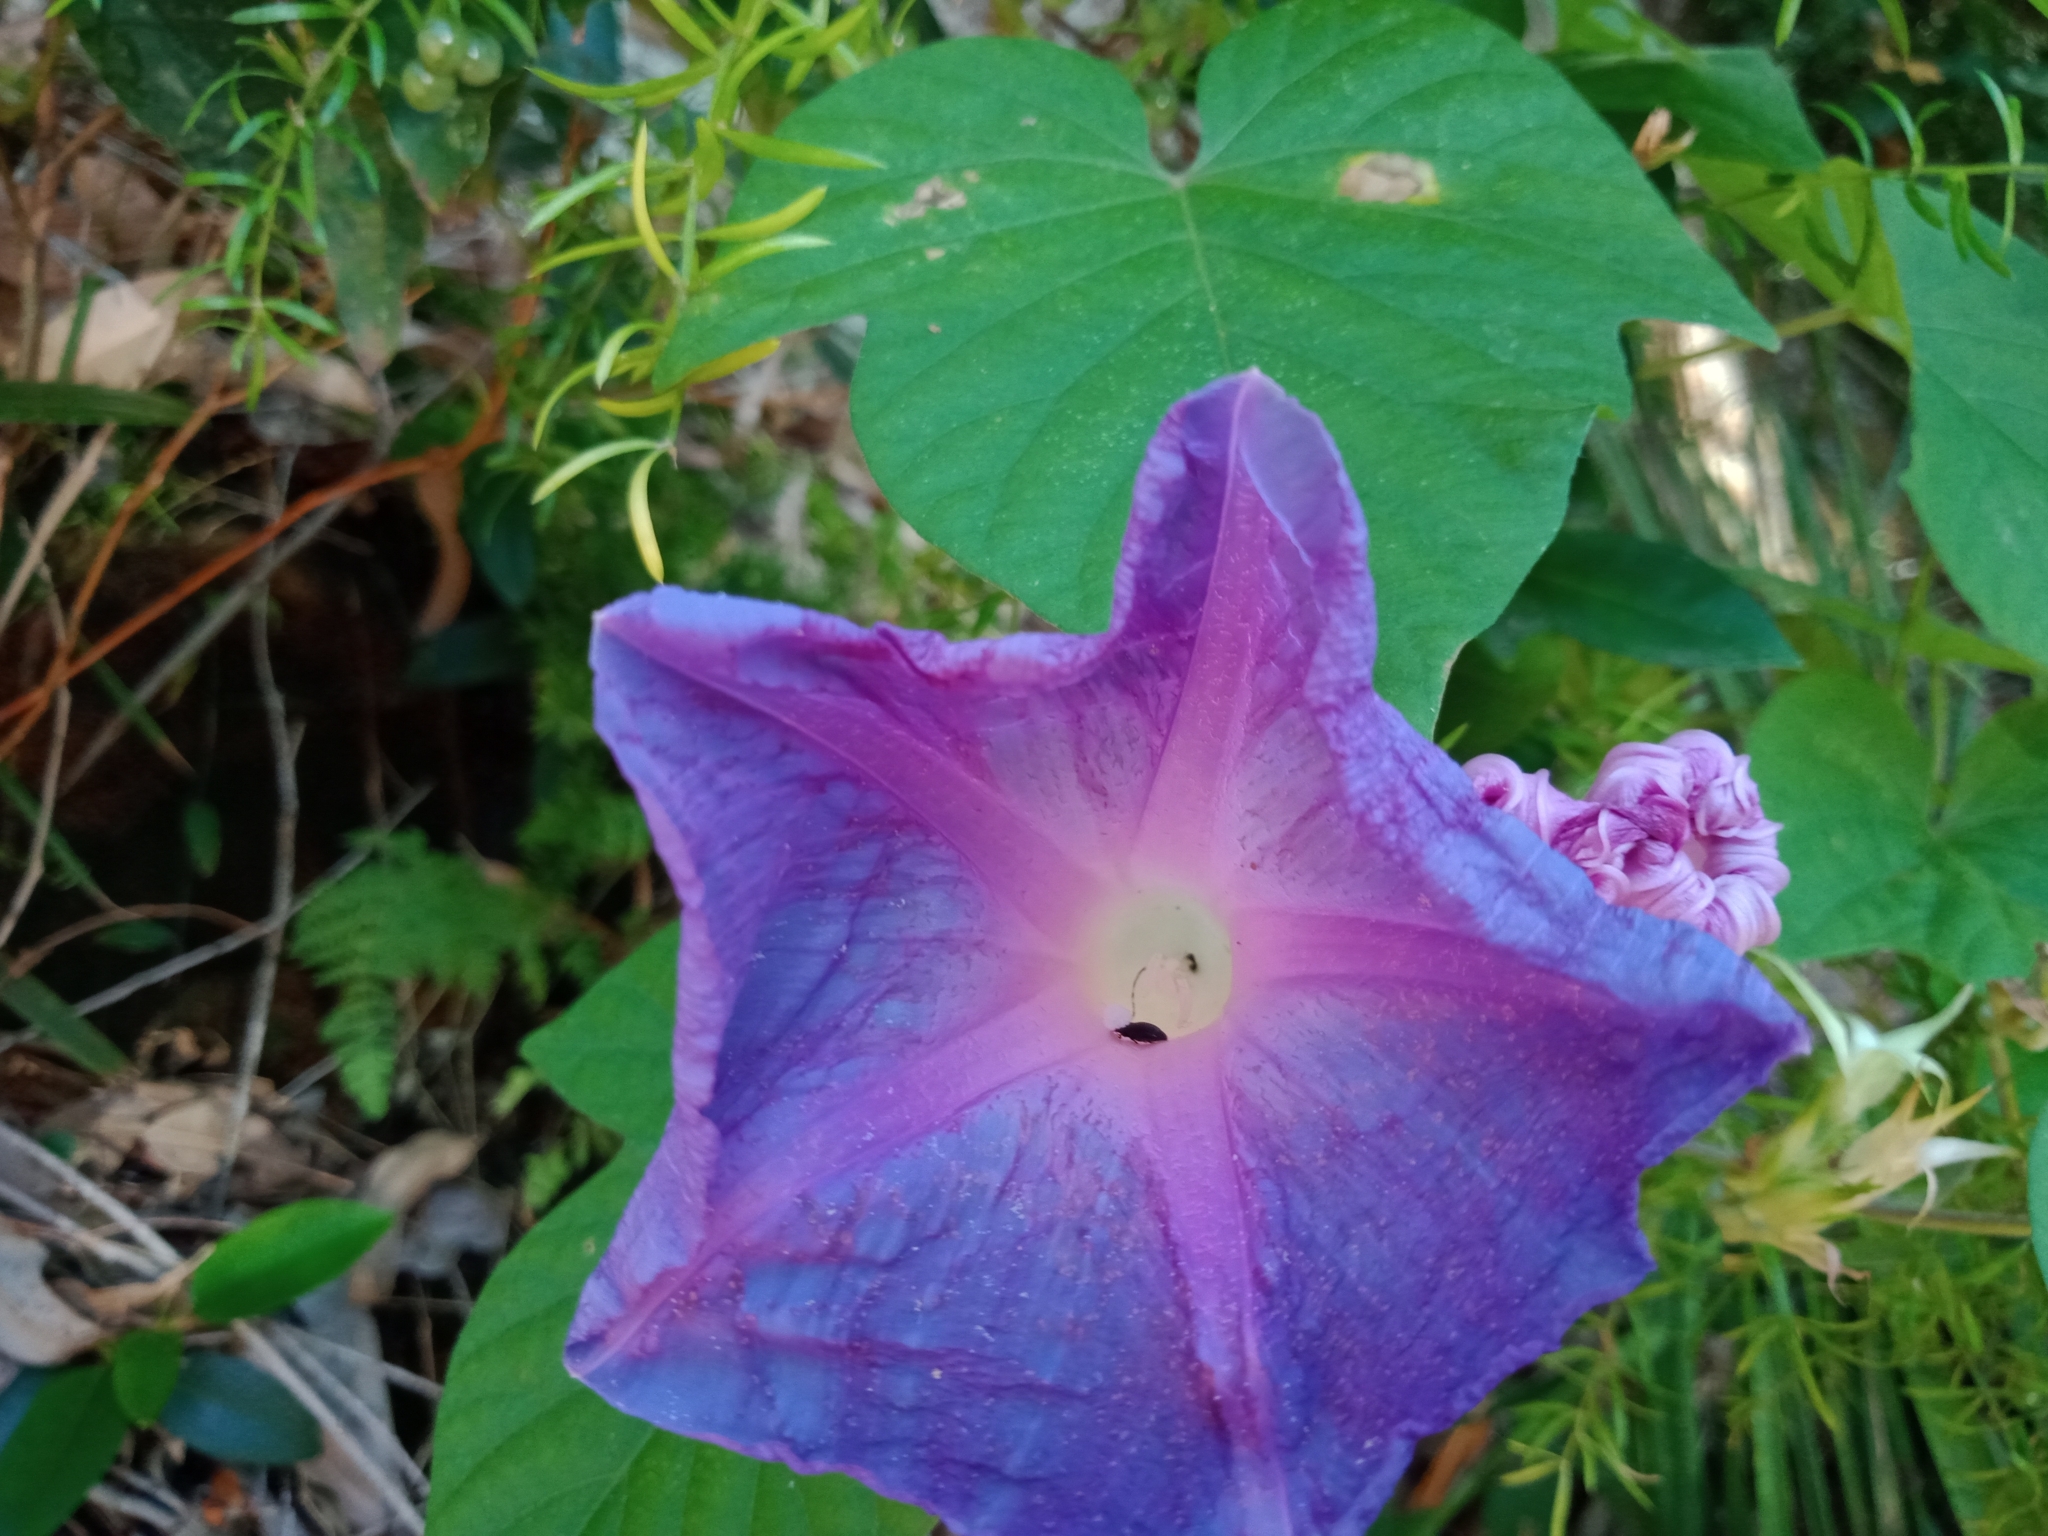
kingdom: Plantae
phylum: Tracheophyta
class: Magnoliopsida
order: Solanales
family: Convolvulaceae
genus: Ipomoea
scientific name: Ipomoea indica
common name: Blue dawnflower
